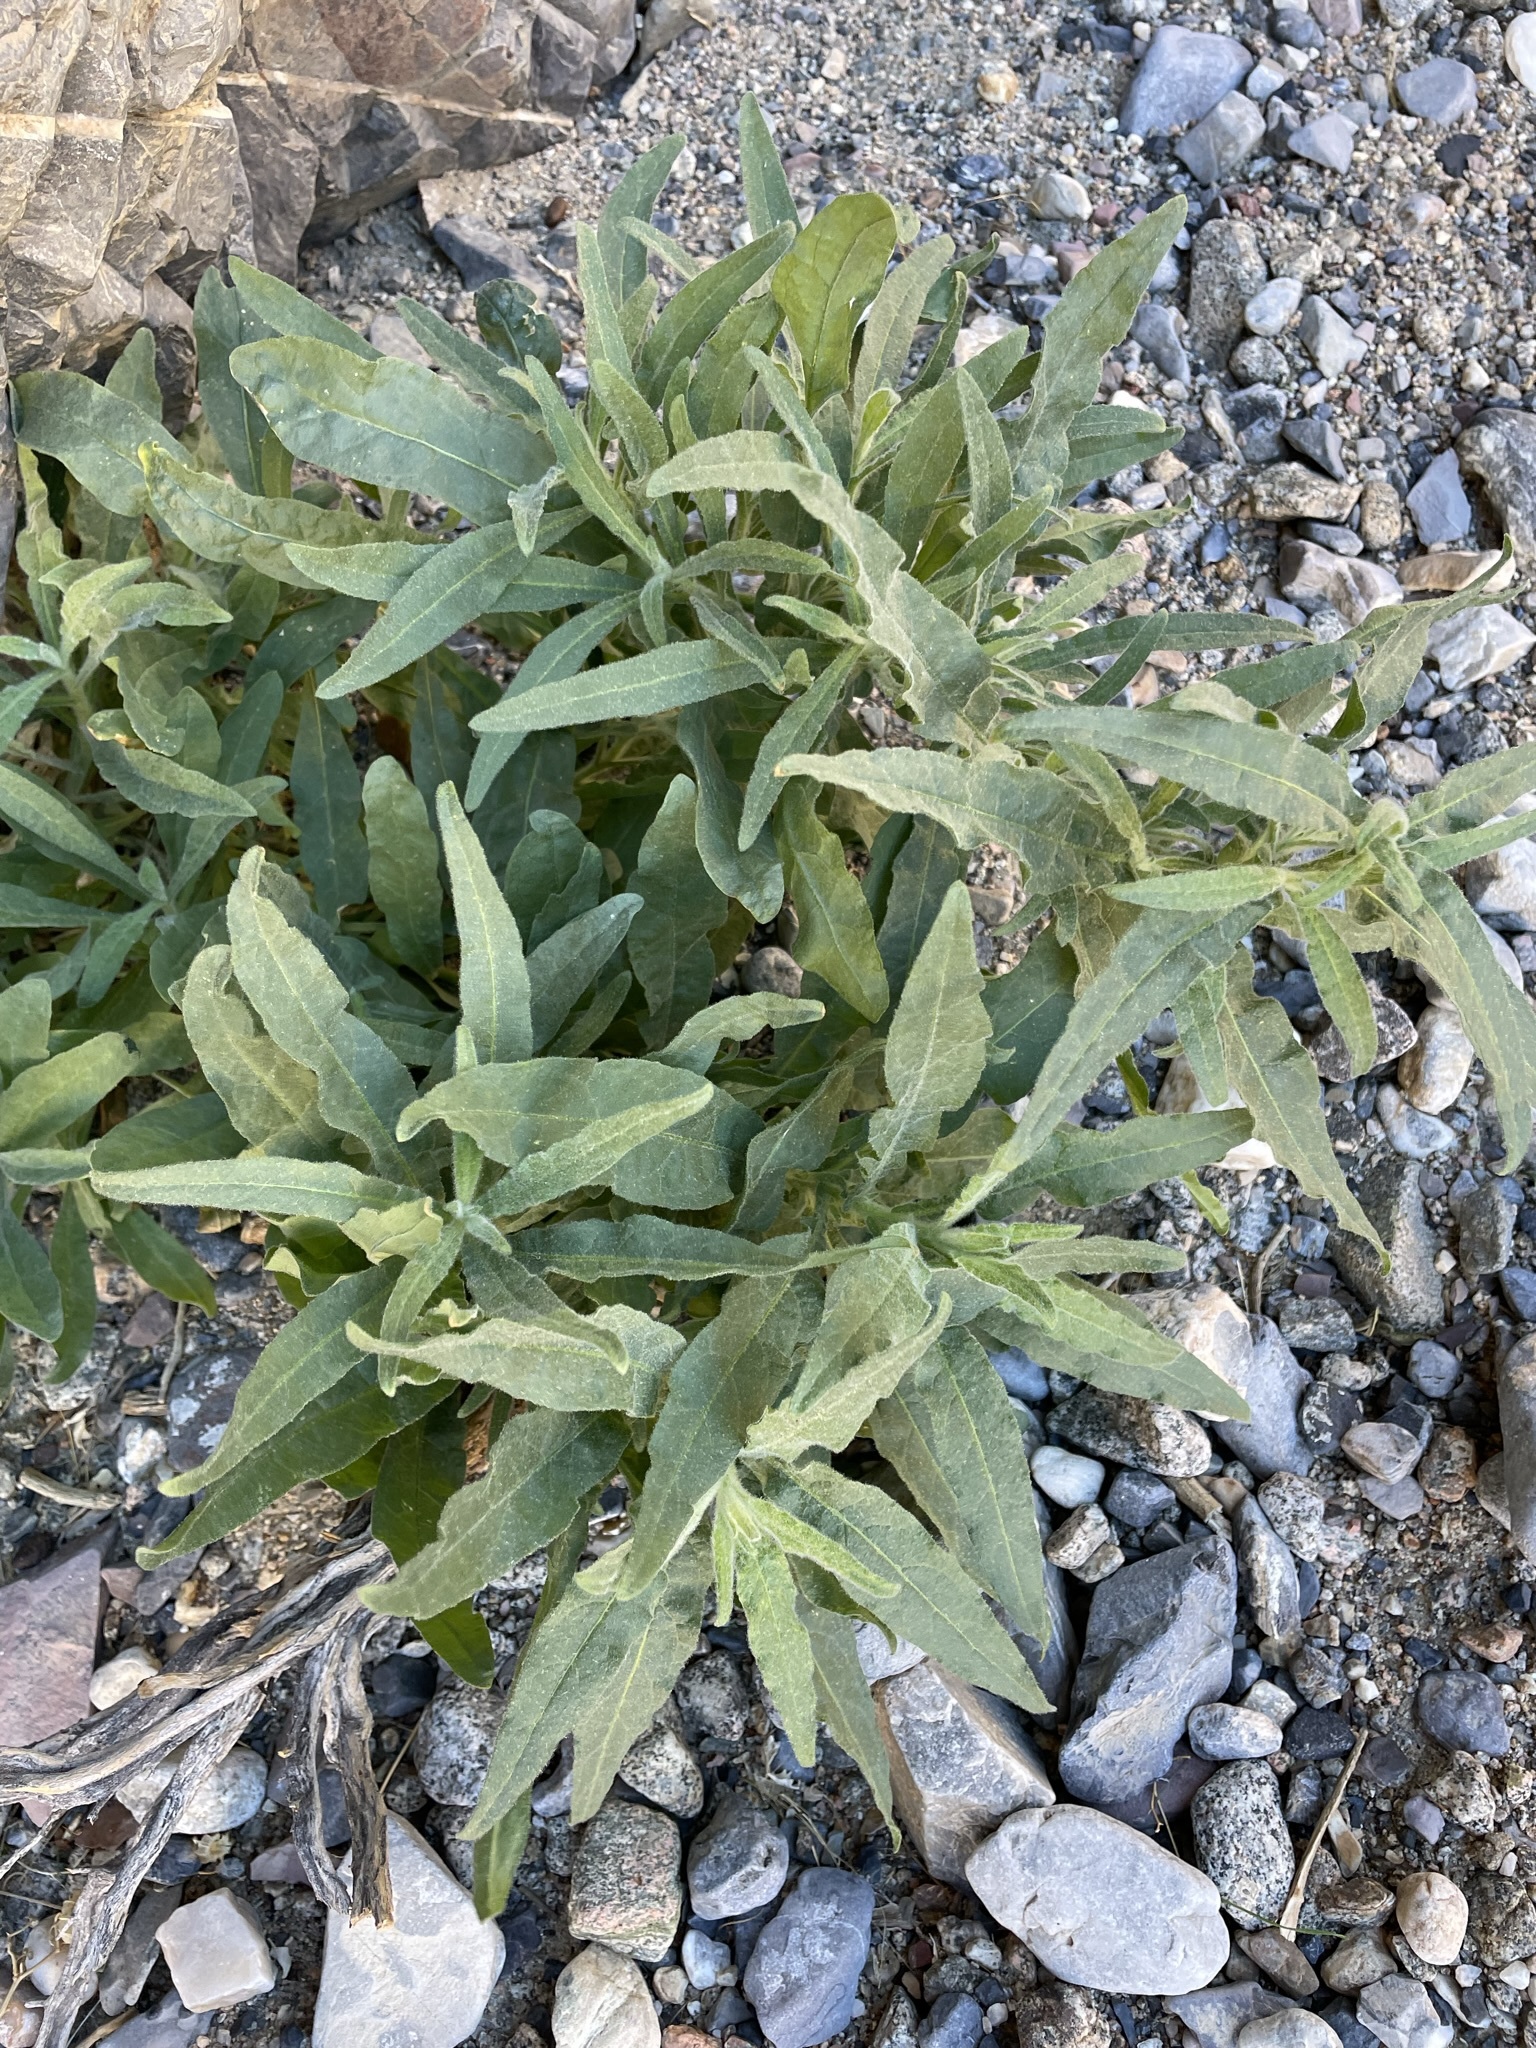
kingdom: Plantae
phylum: Tracheophyta
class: Magnoliopsida
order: Solanales
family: Solanaceae
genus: Nicotiana
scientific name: Nicotiana obtusifolia
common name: Desert tobacco
